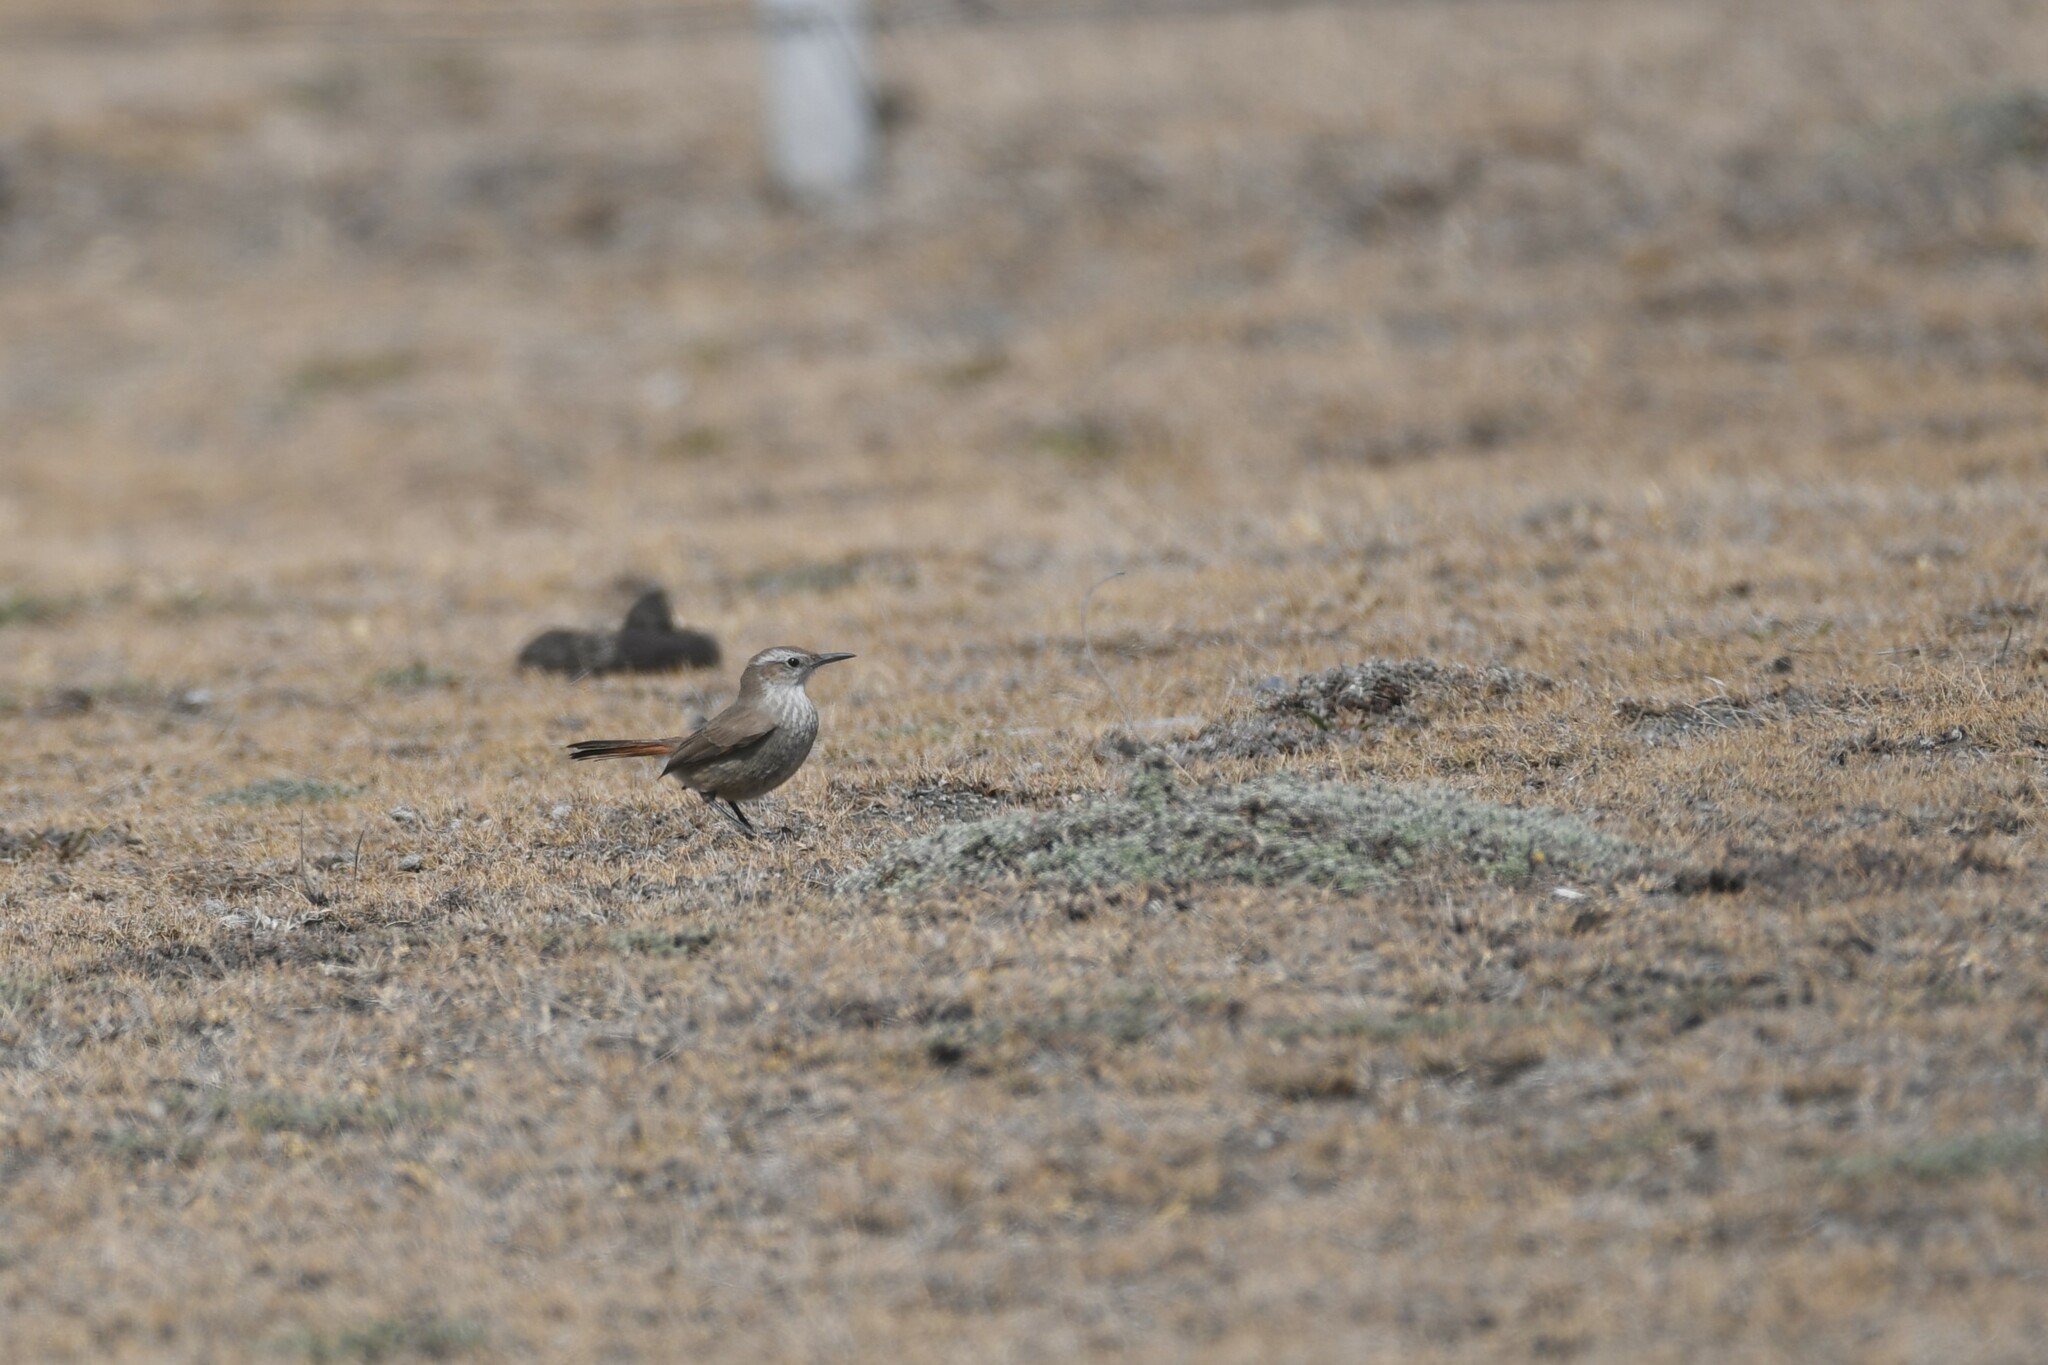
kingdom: Animalia
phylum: Chordata
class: Aves
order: Passeriformes
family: Furnariidae
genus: Eremobius
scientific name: Eremobius phoenicurus
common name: Band-tailed eremobius
